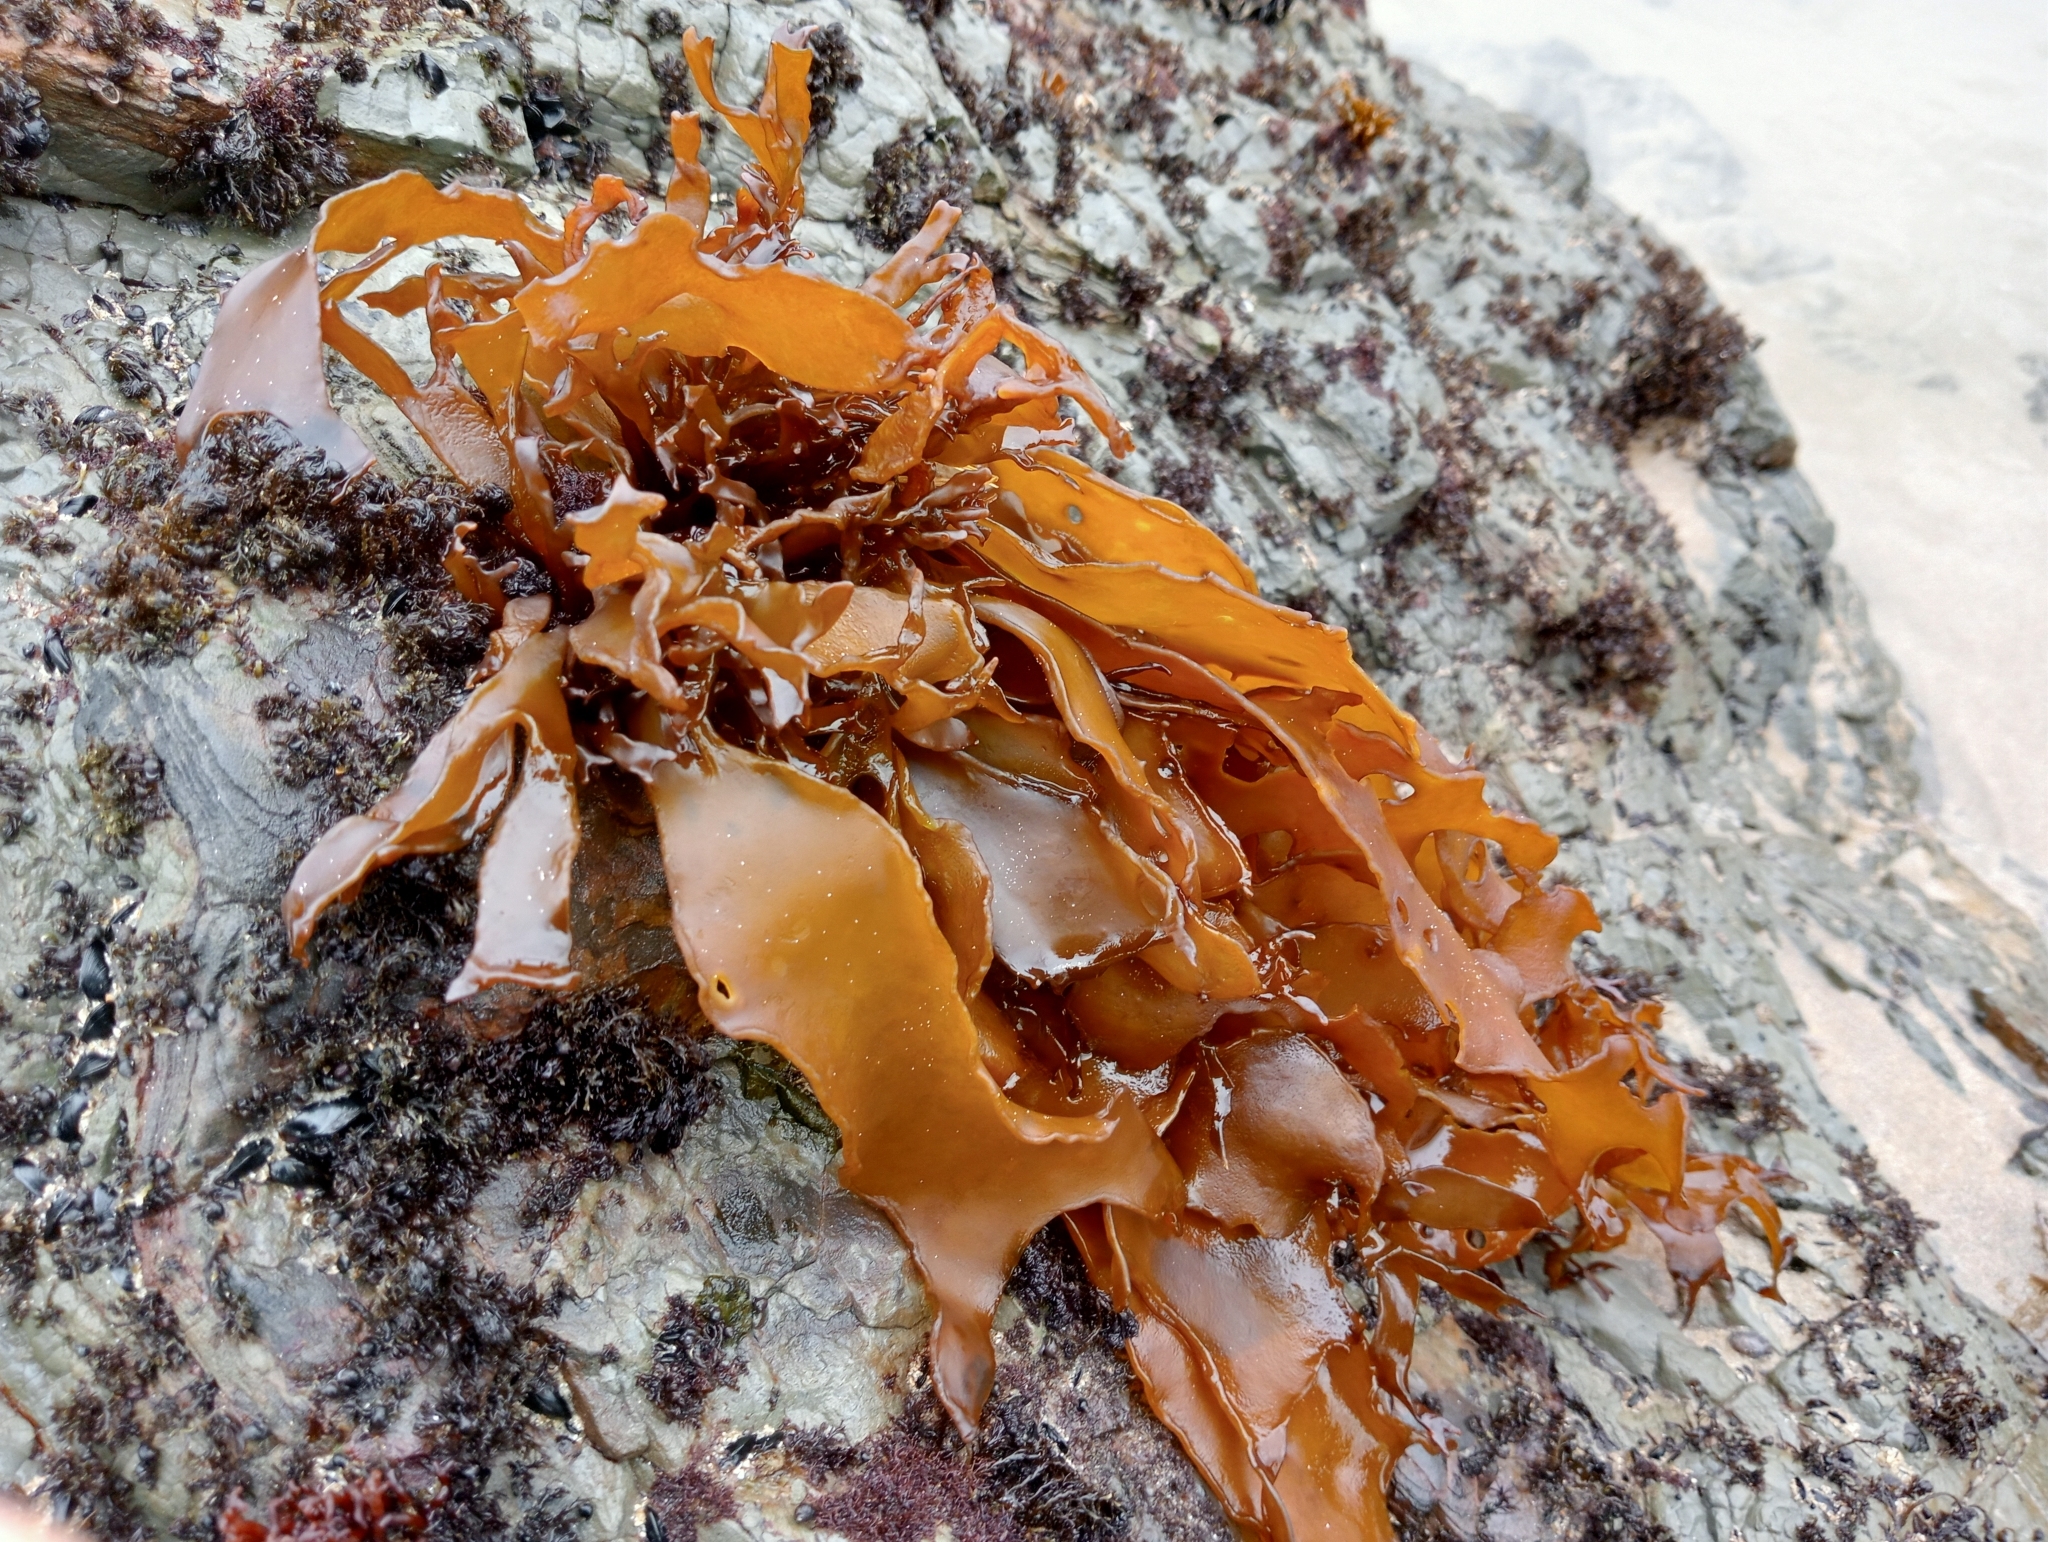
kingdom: Plantae
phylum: Rhodophyta
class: Florideophyceae
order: Halymeniales
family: Halymeniaceae
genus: Pachymenia
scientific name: Pachymenia dichotoma
